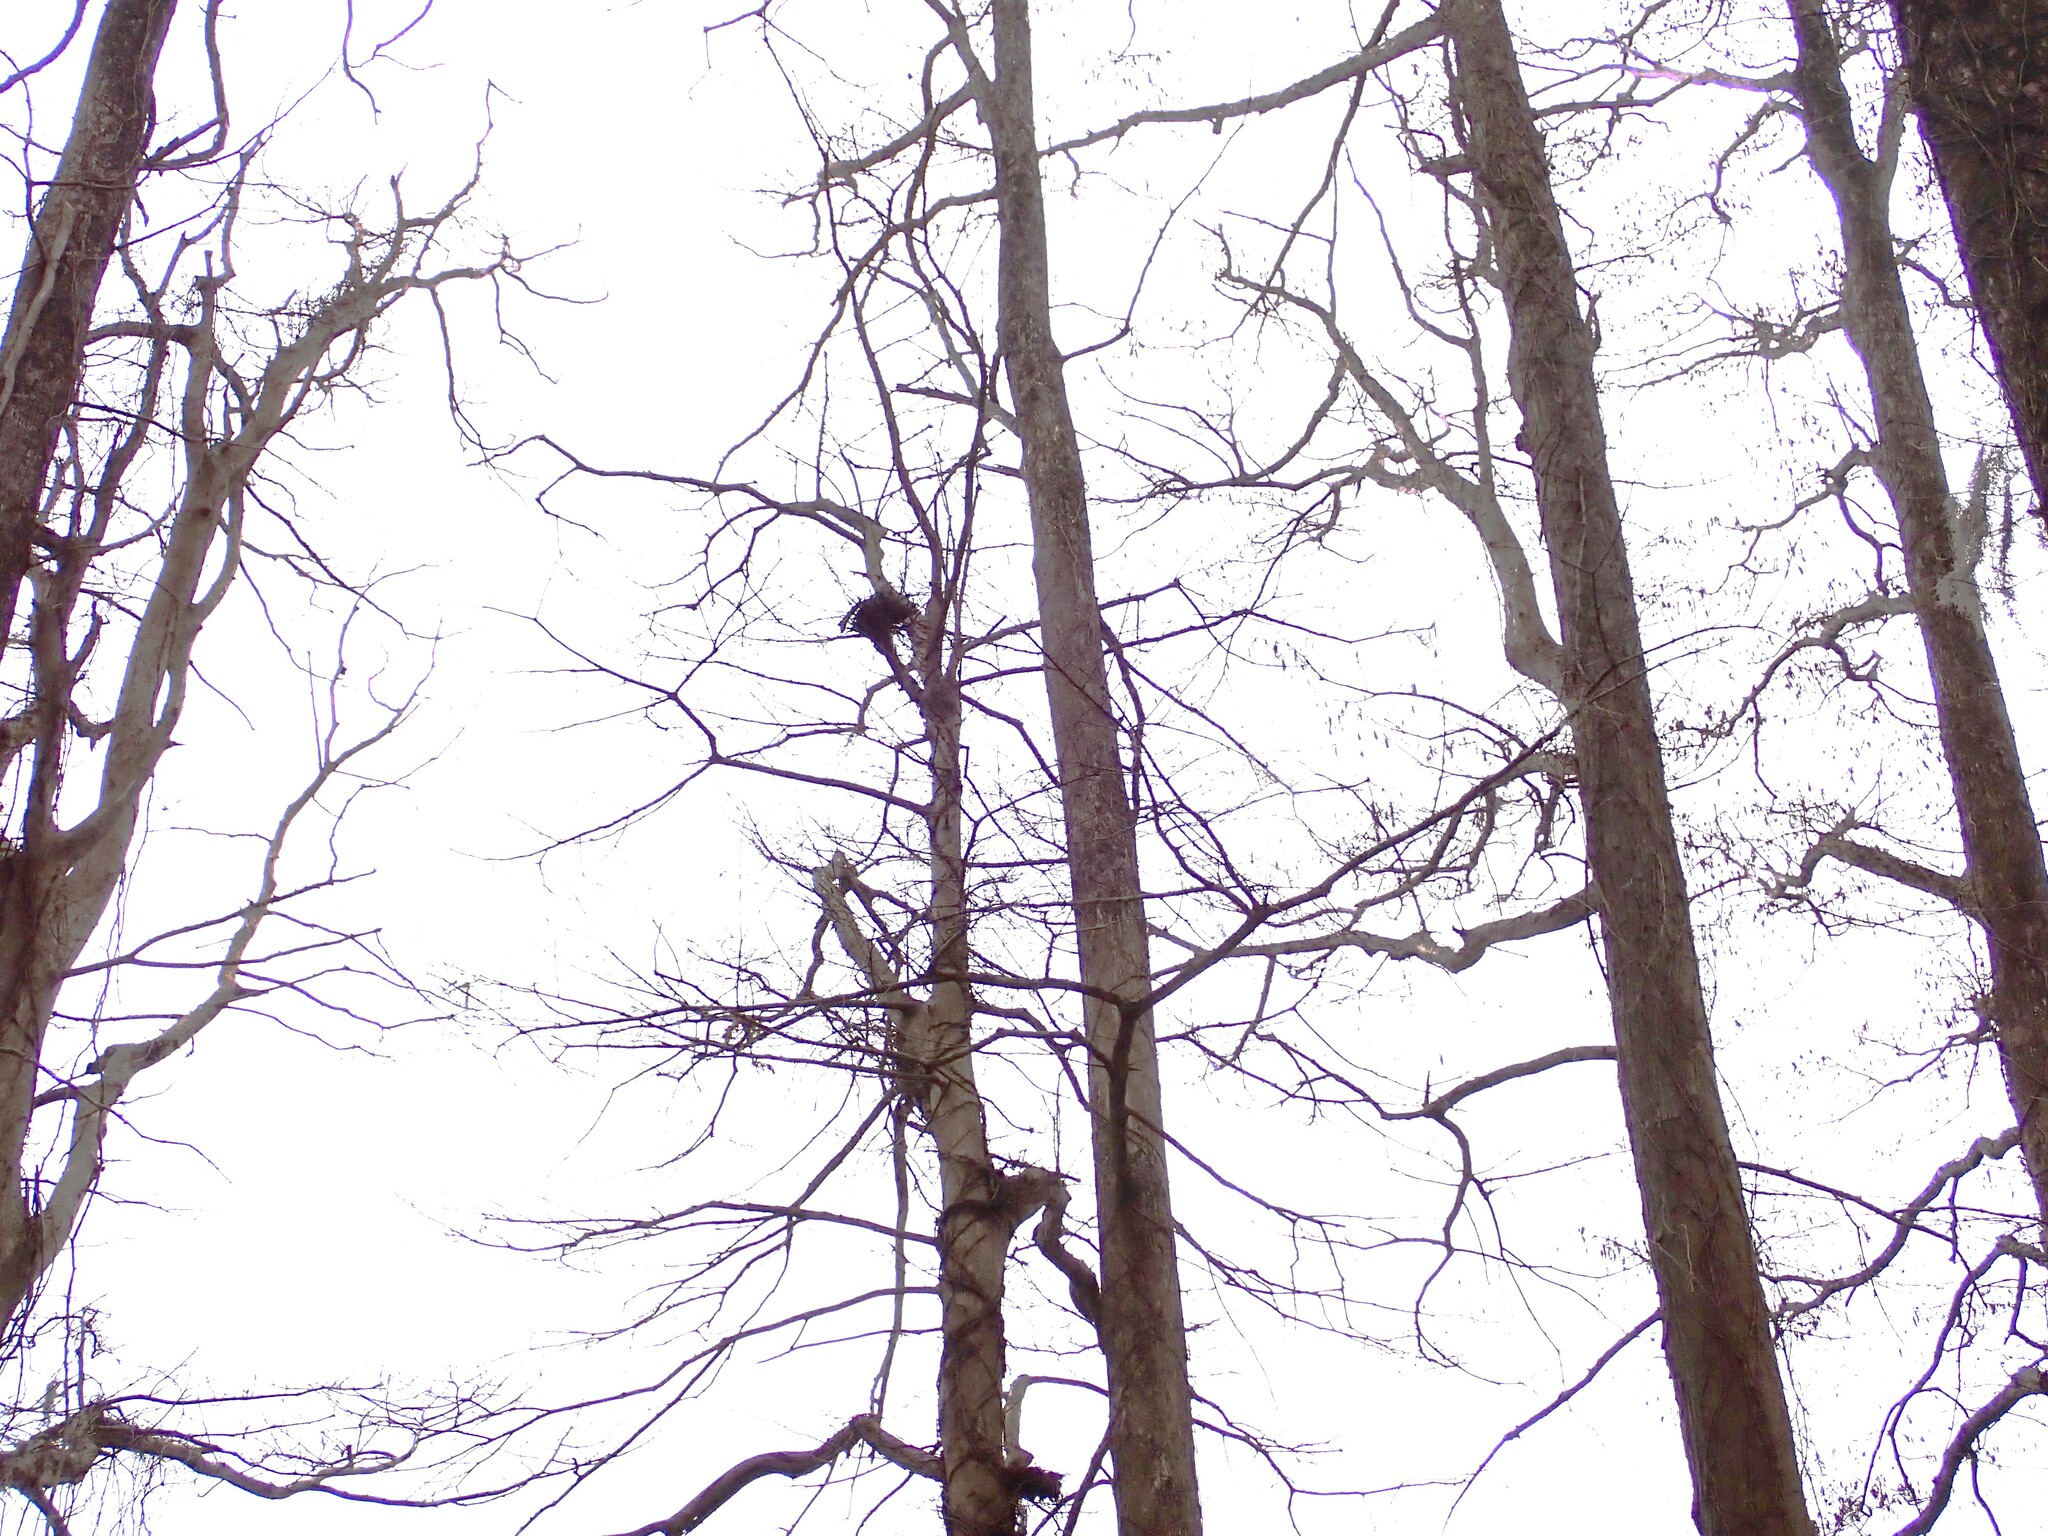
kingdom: Plantae
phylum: Tracheophyta
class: Pinopsida
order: Pinales
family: Cupressaceae
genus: Taxodium
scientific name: Taxodium distichum
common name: Bald cypress
